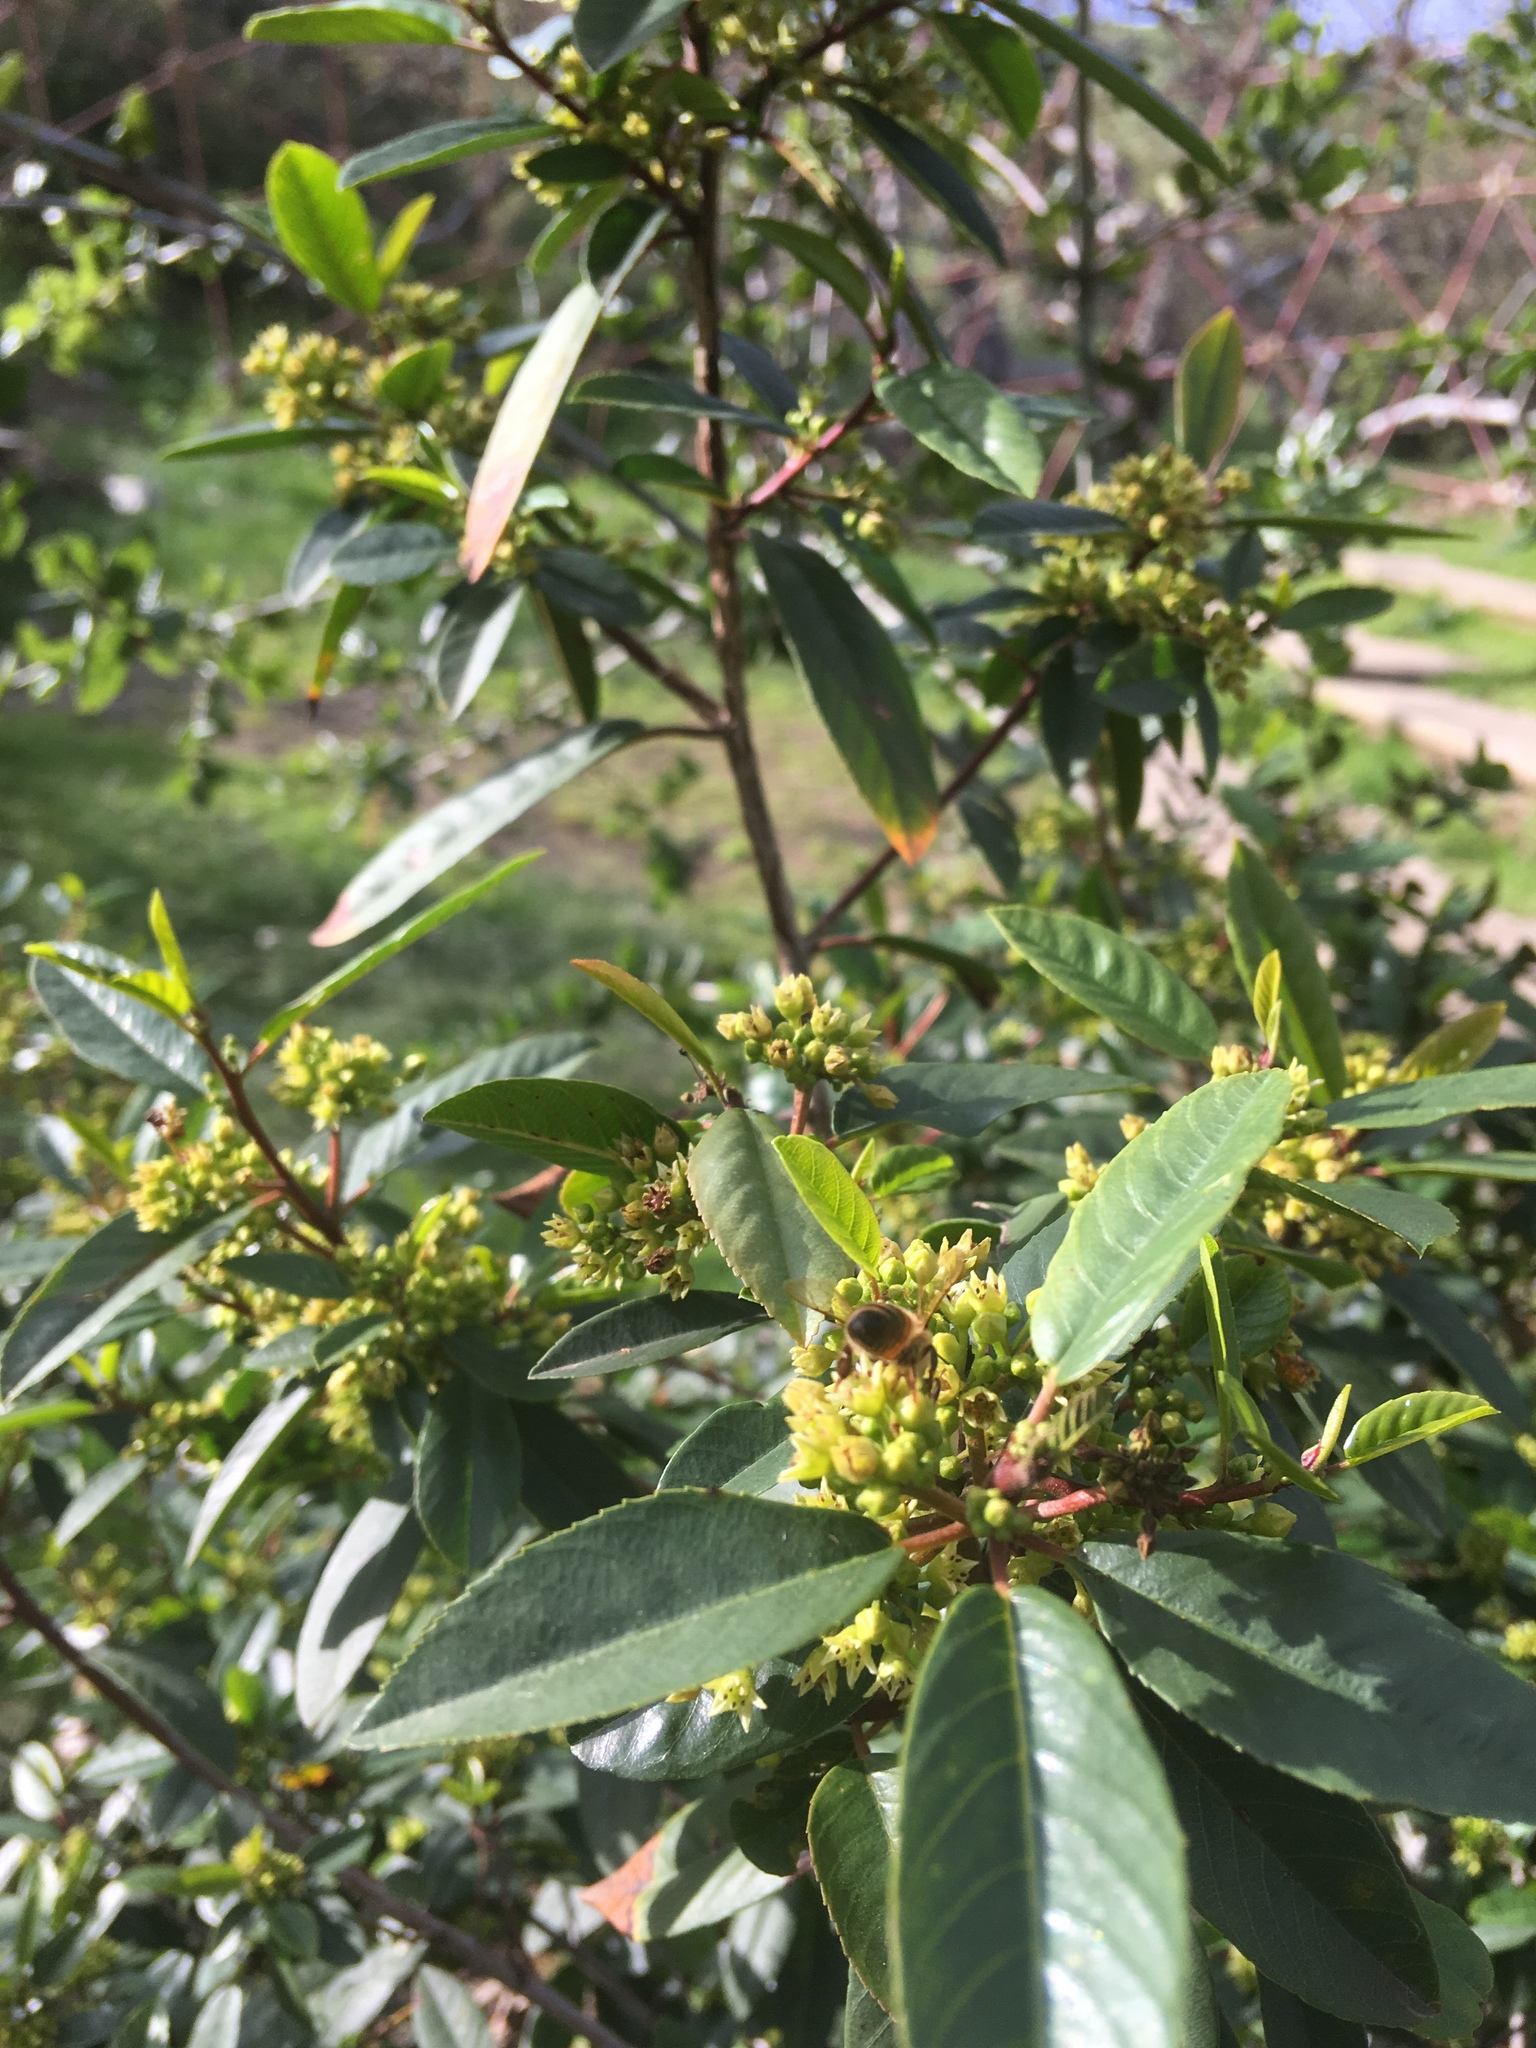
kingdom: Animalia
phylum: Arthropoda
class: Insecta
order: Hymenoptera
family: Apidae
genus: Apis
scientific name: Apis mellifera
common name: Honey bee
